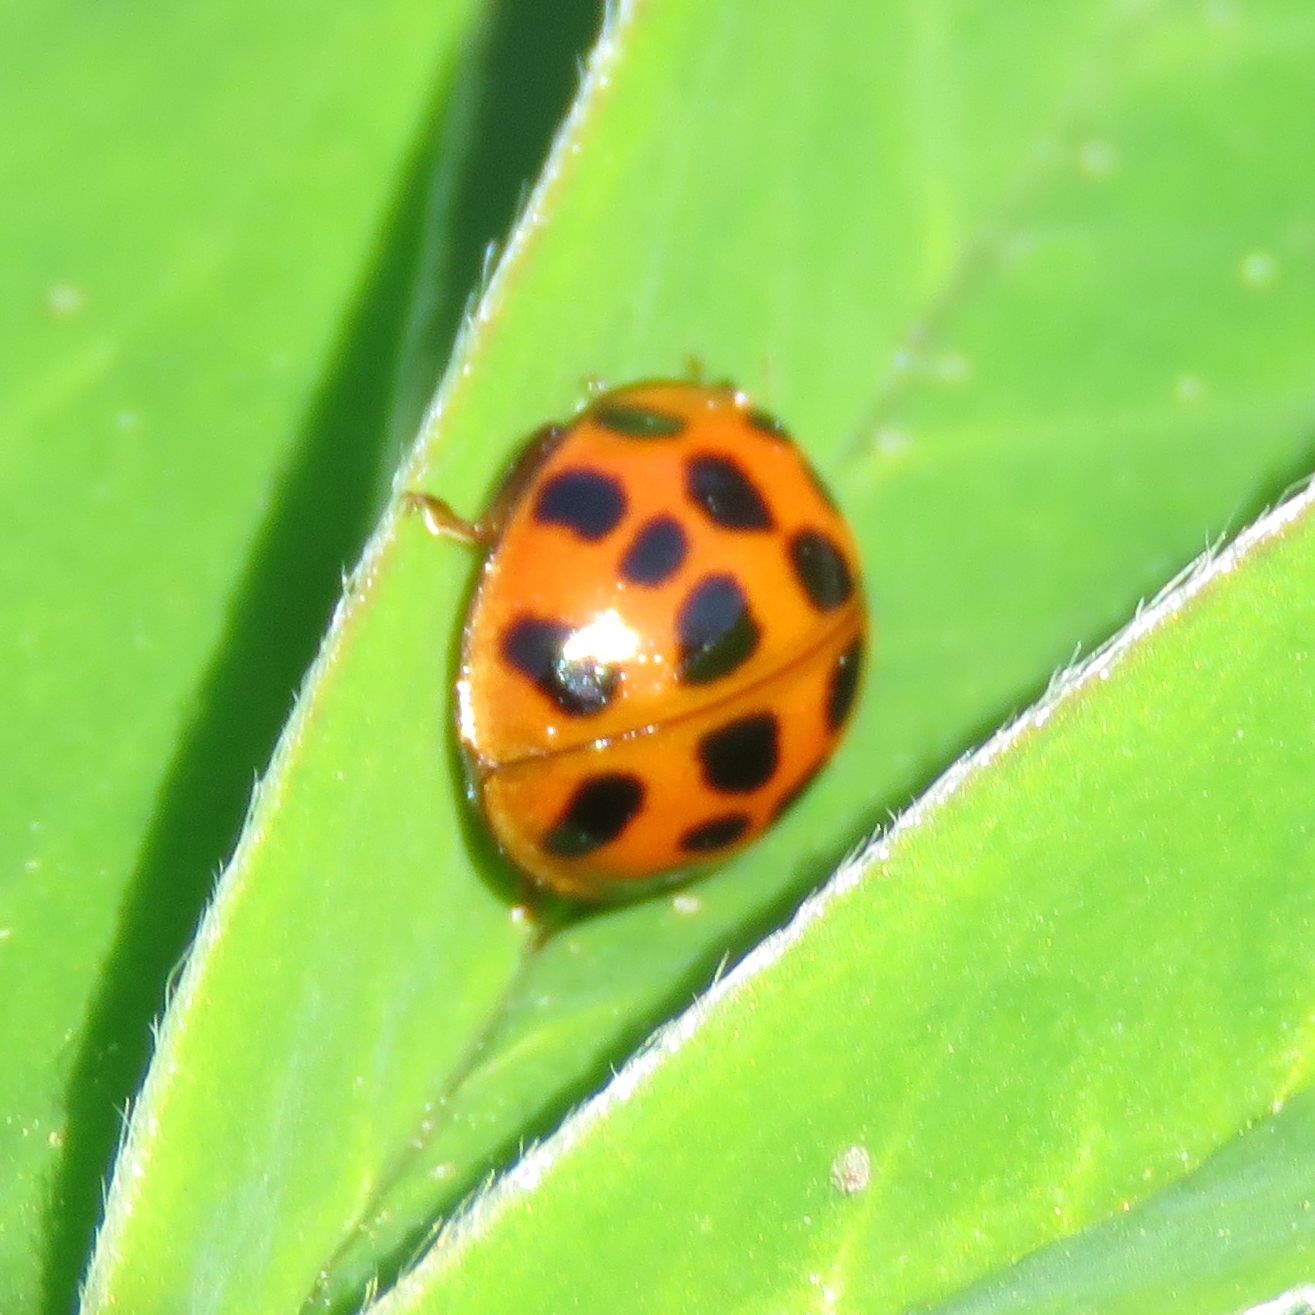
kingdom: Animalia
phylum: Arthropoda
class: Insecta
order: Coleoptera
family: Coccinellidae
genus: Harmonia
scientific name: Harmonia axyridis
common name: Harlequin ladybird
